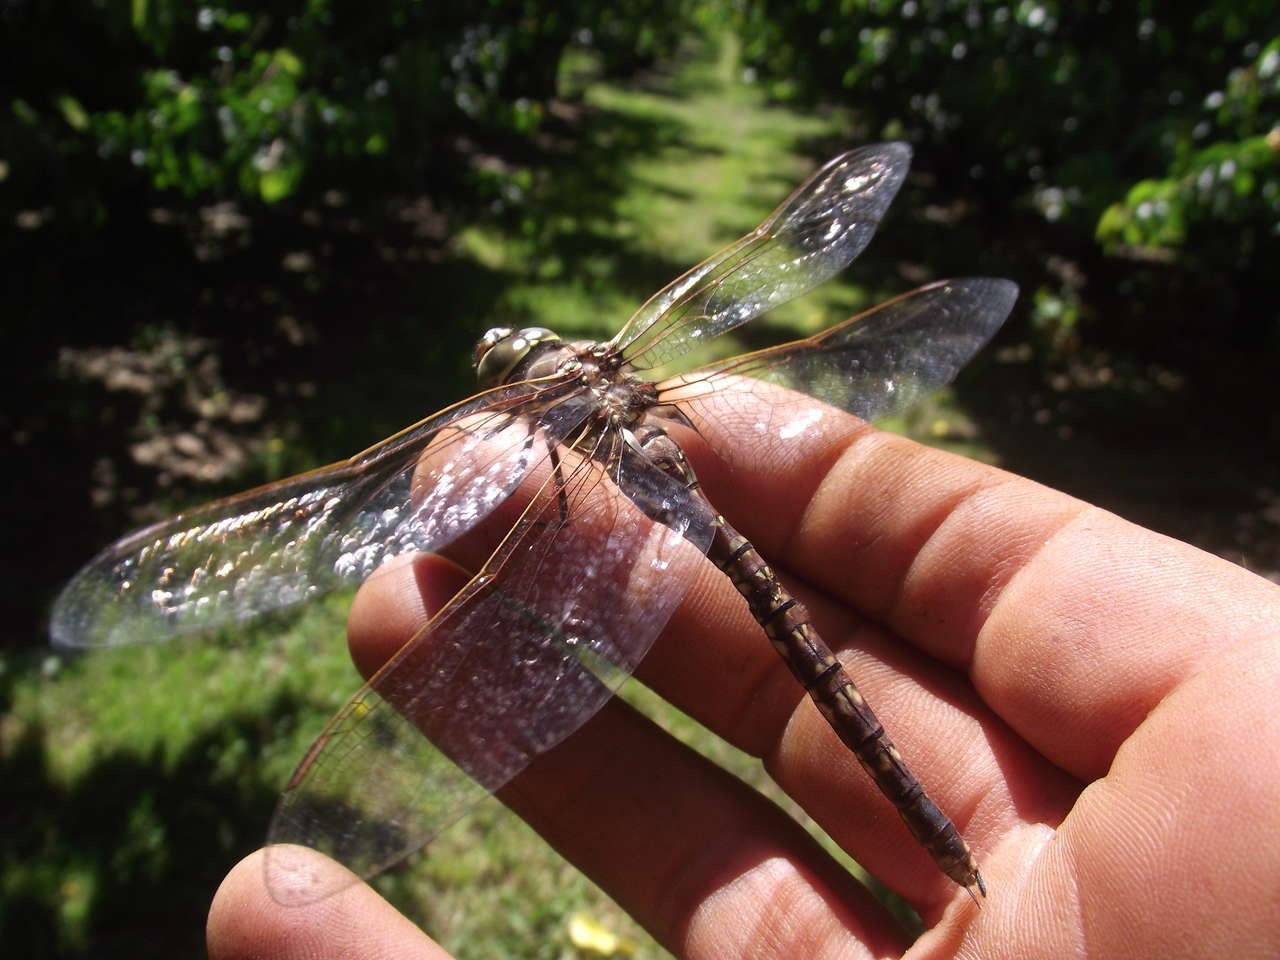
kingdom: Animalia
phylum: Arthropoda
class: Insecta
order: Odonata
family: Aeshnidae
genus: Aeshna
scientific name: Aeshna brevistyla
